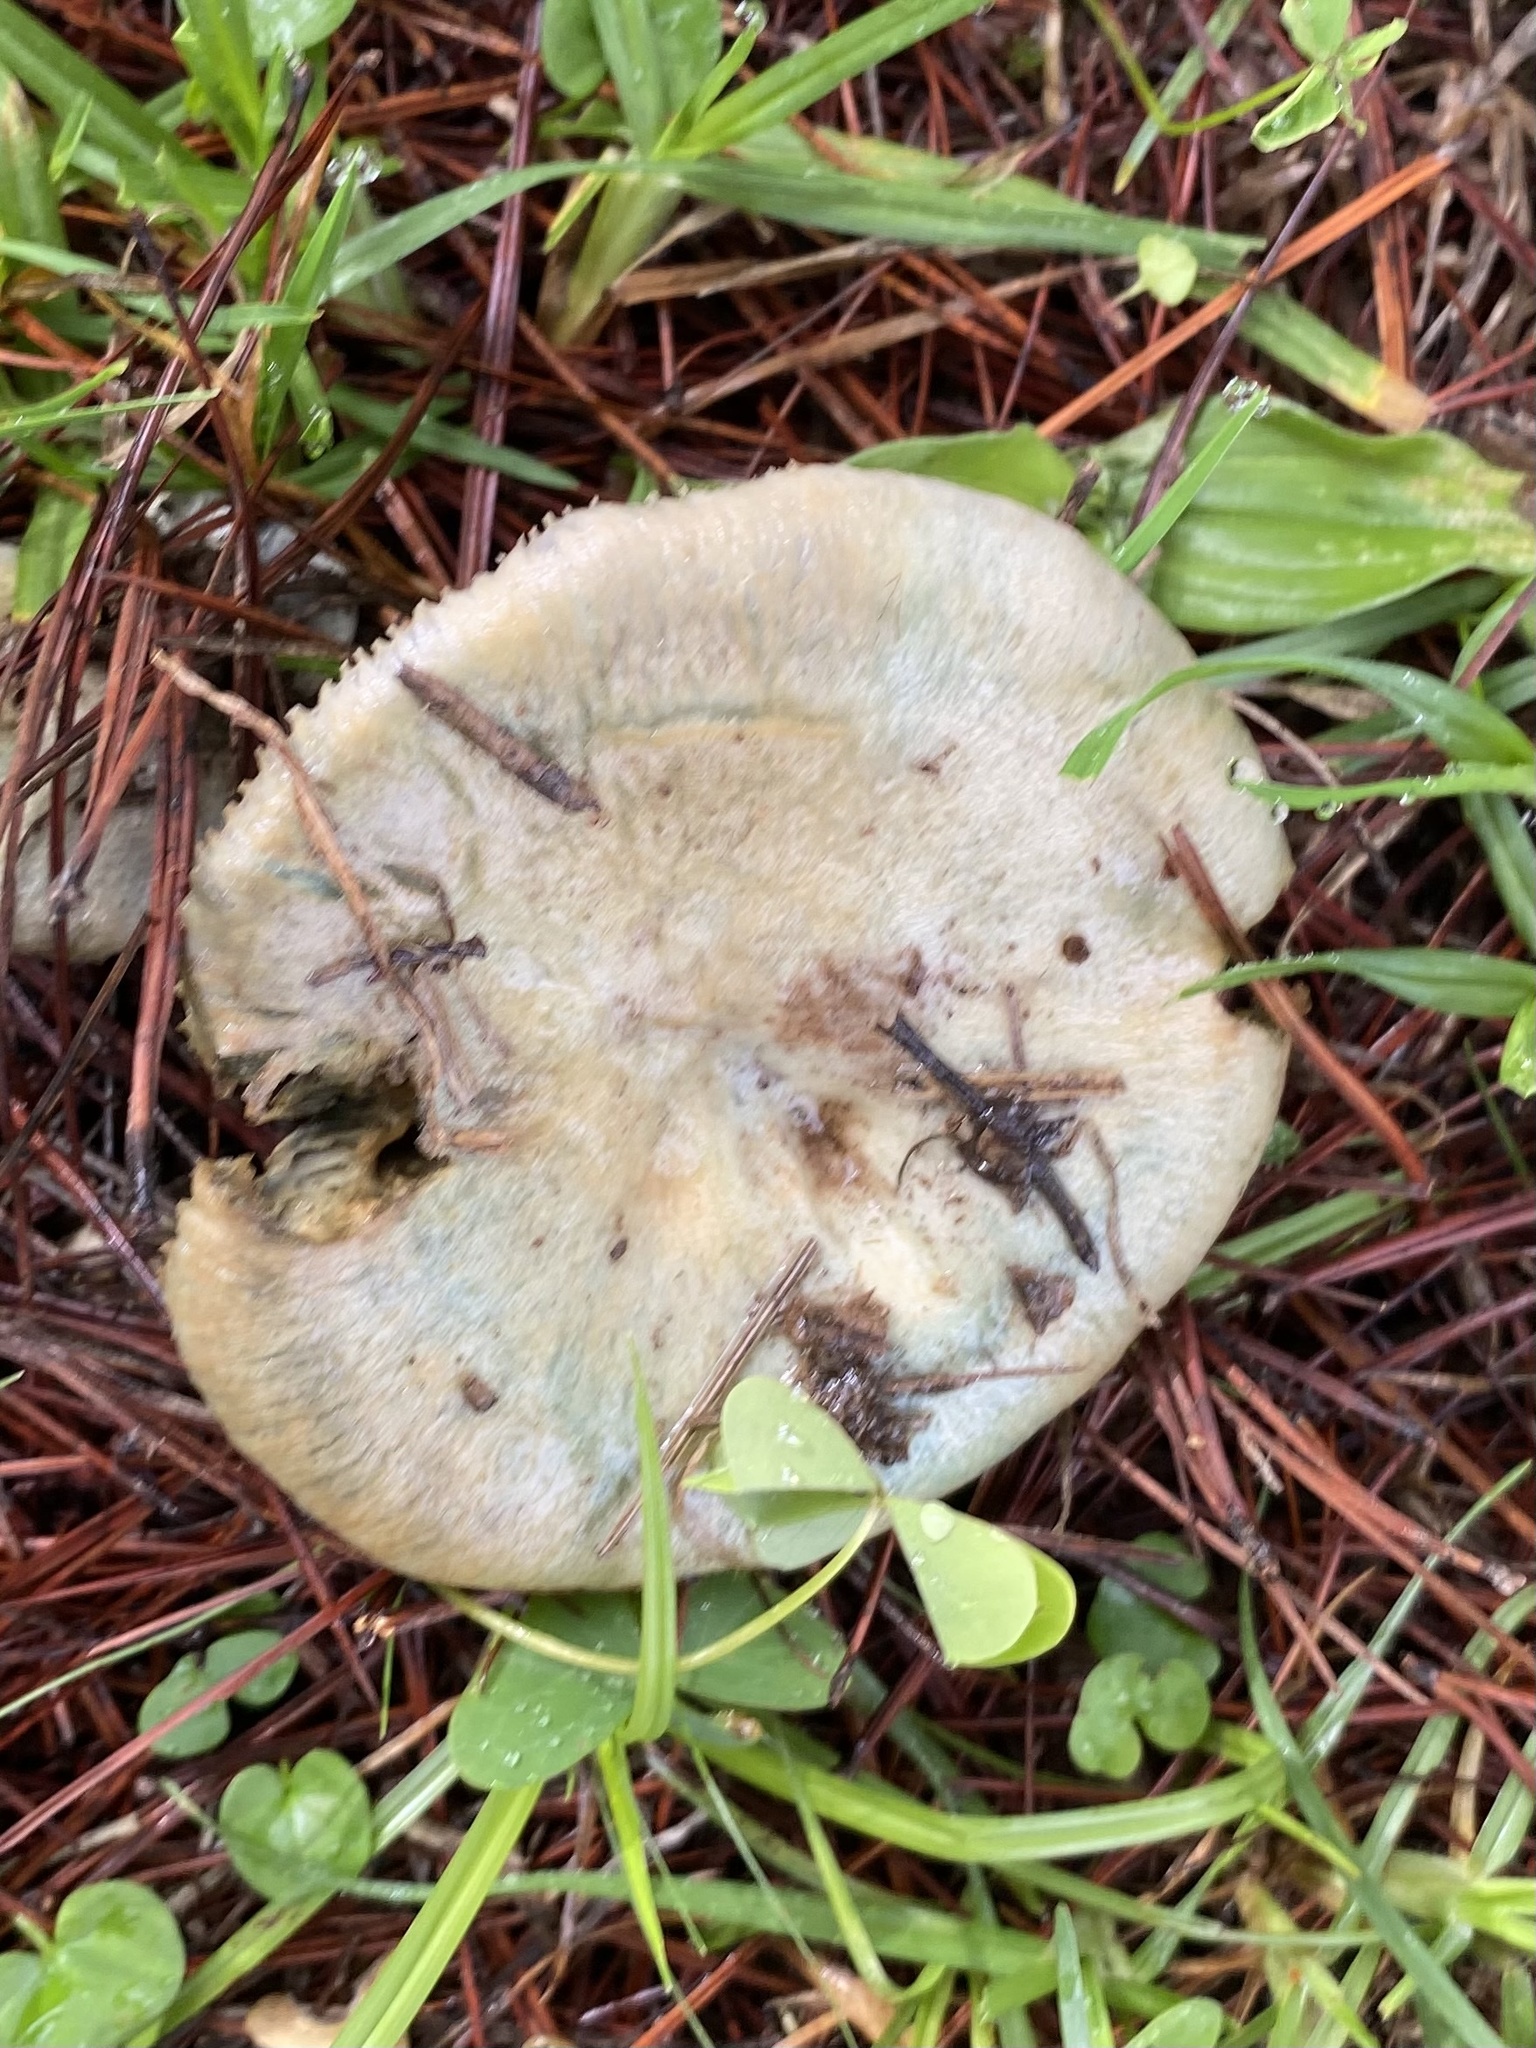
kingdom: Fungi
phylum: Basidiomycota
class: Agaricomycetes
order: Russulales
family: Russulaceae
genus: Lactarius
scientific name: Lactarius paradoxus
